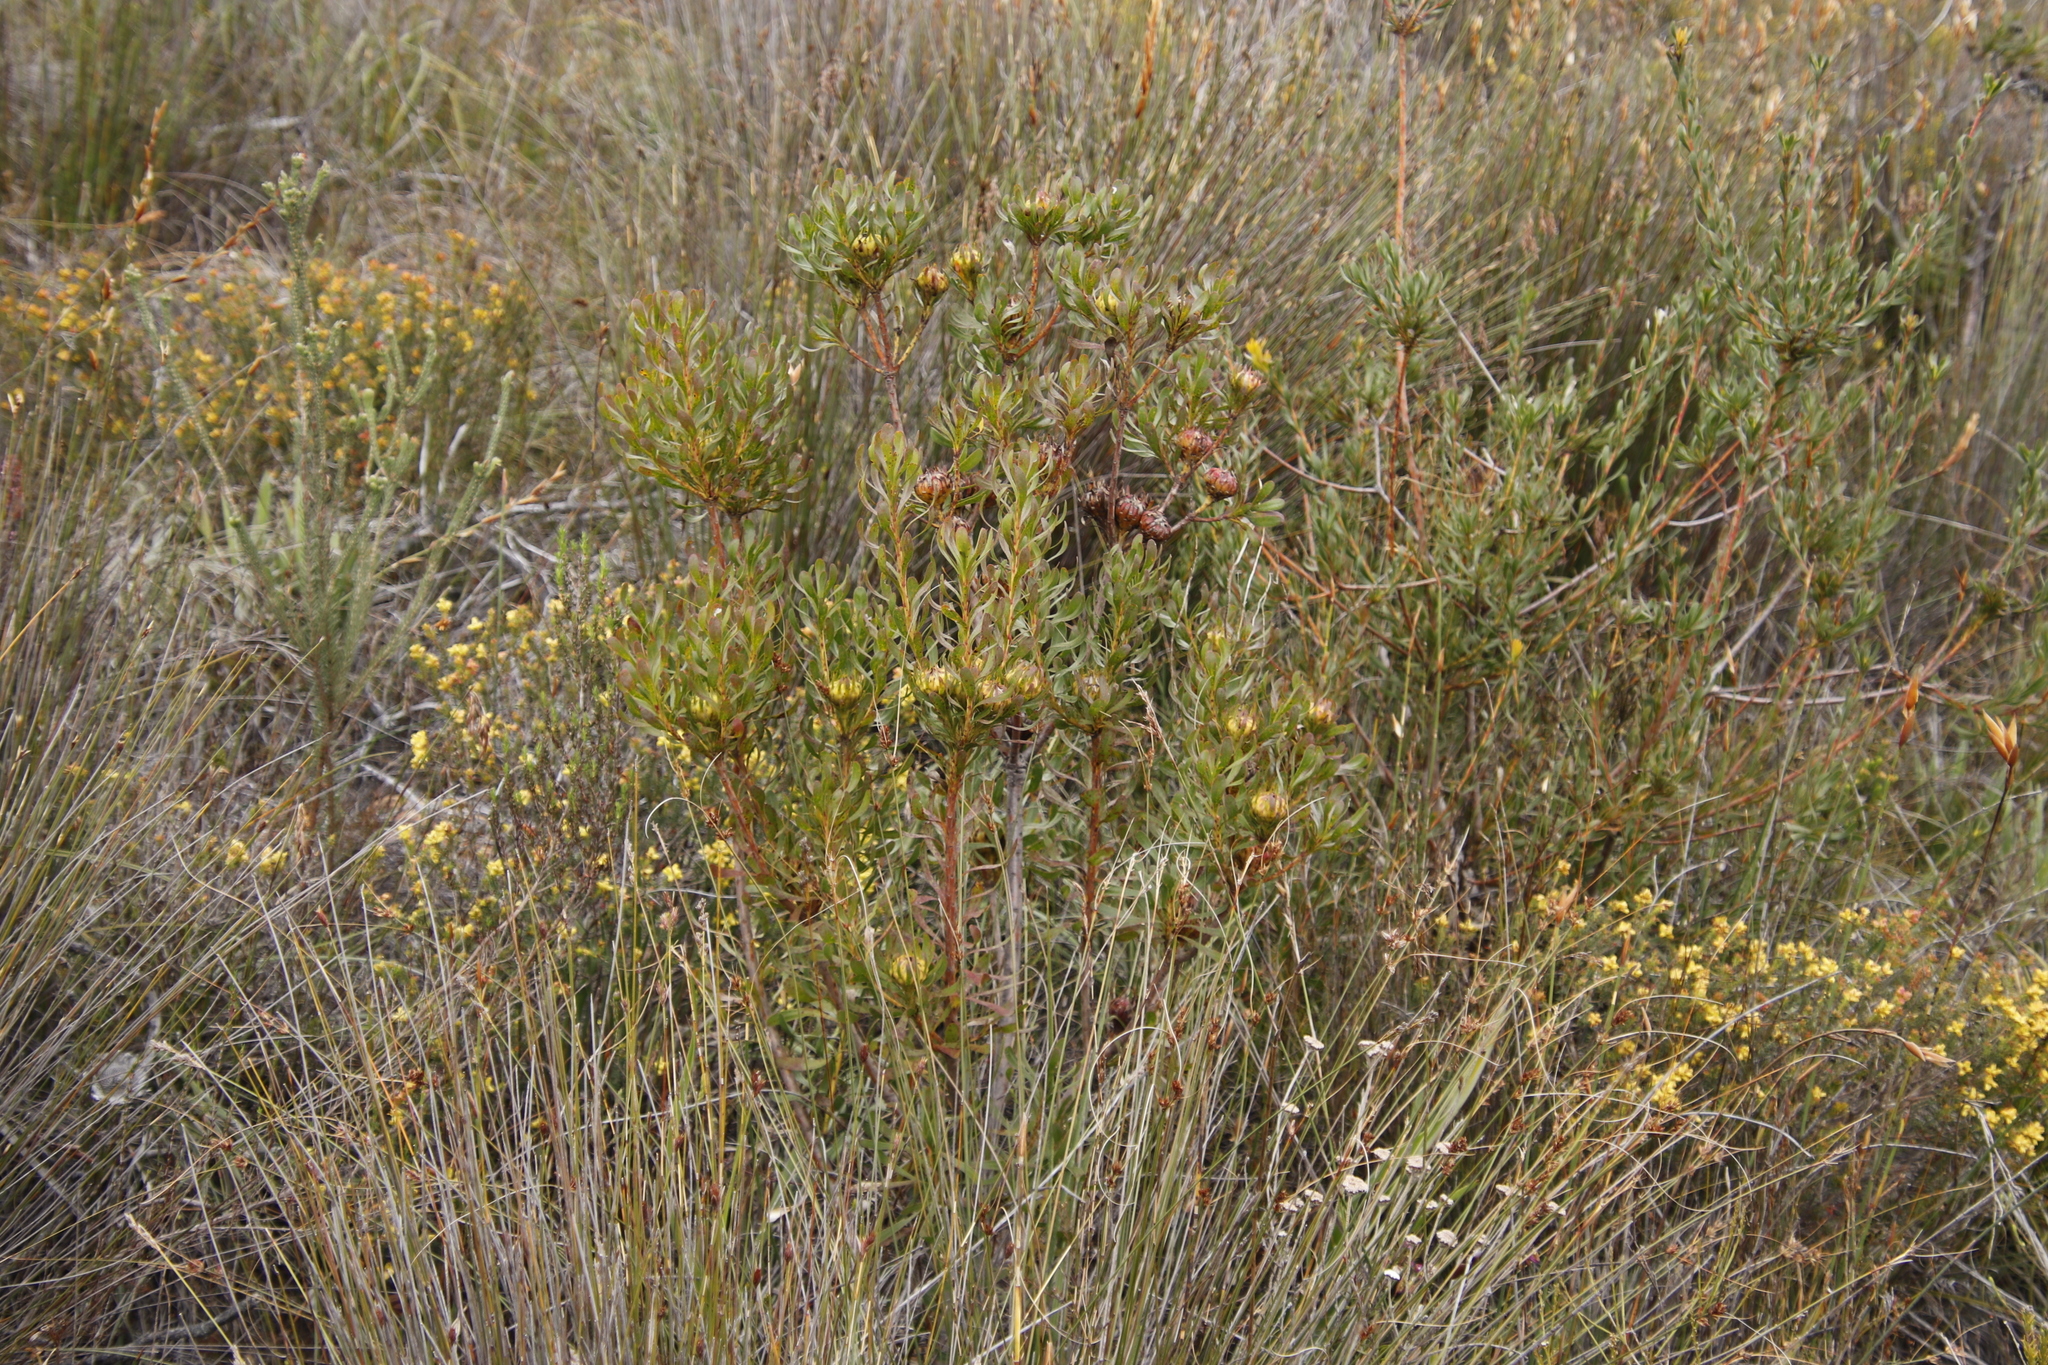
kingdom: Plantae
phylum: Tracheophyta
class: Magnoliopsida
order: Proteales
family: Proteaceae
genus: Aulax
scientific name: Aulax umbellata
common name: Broad-leaf featherbush
